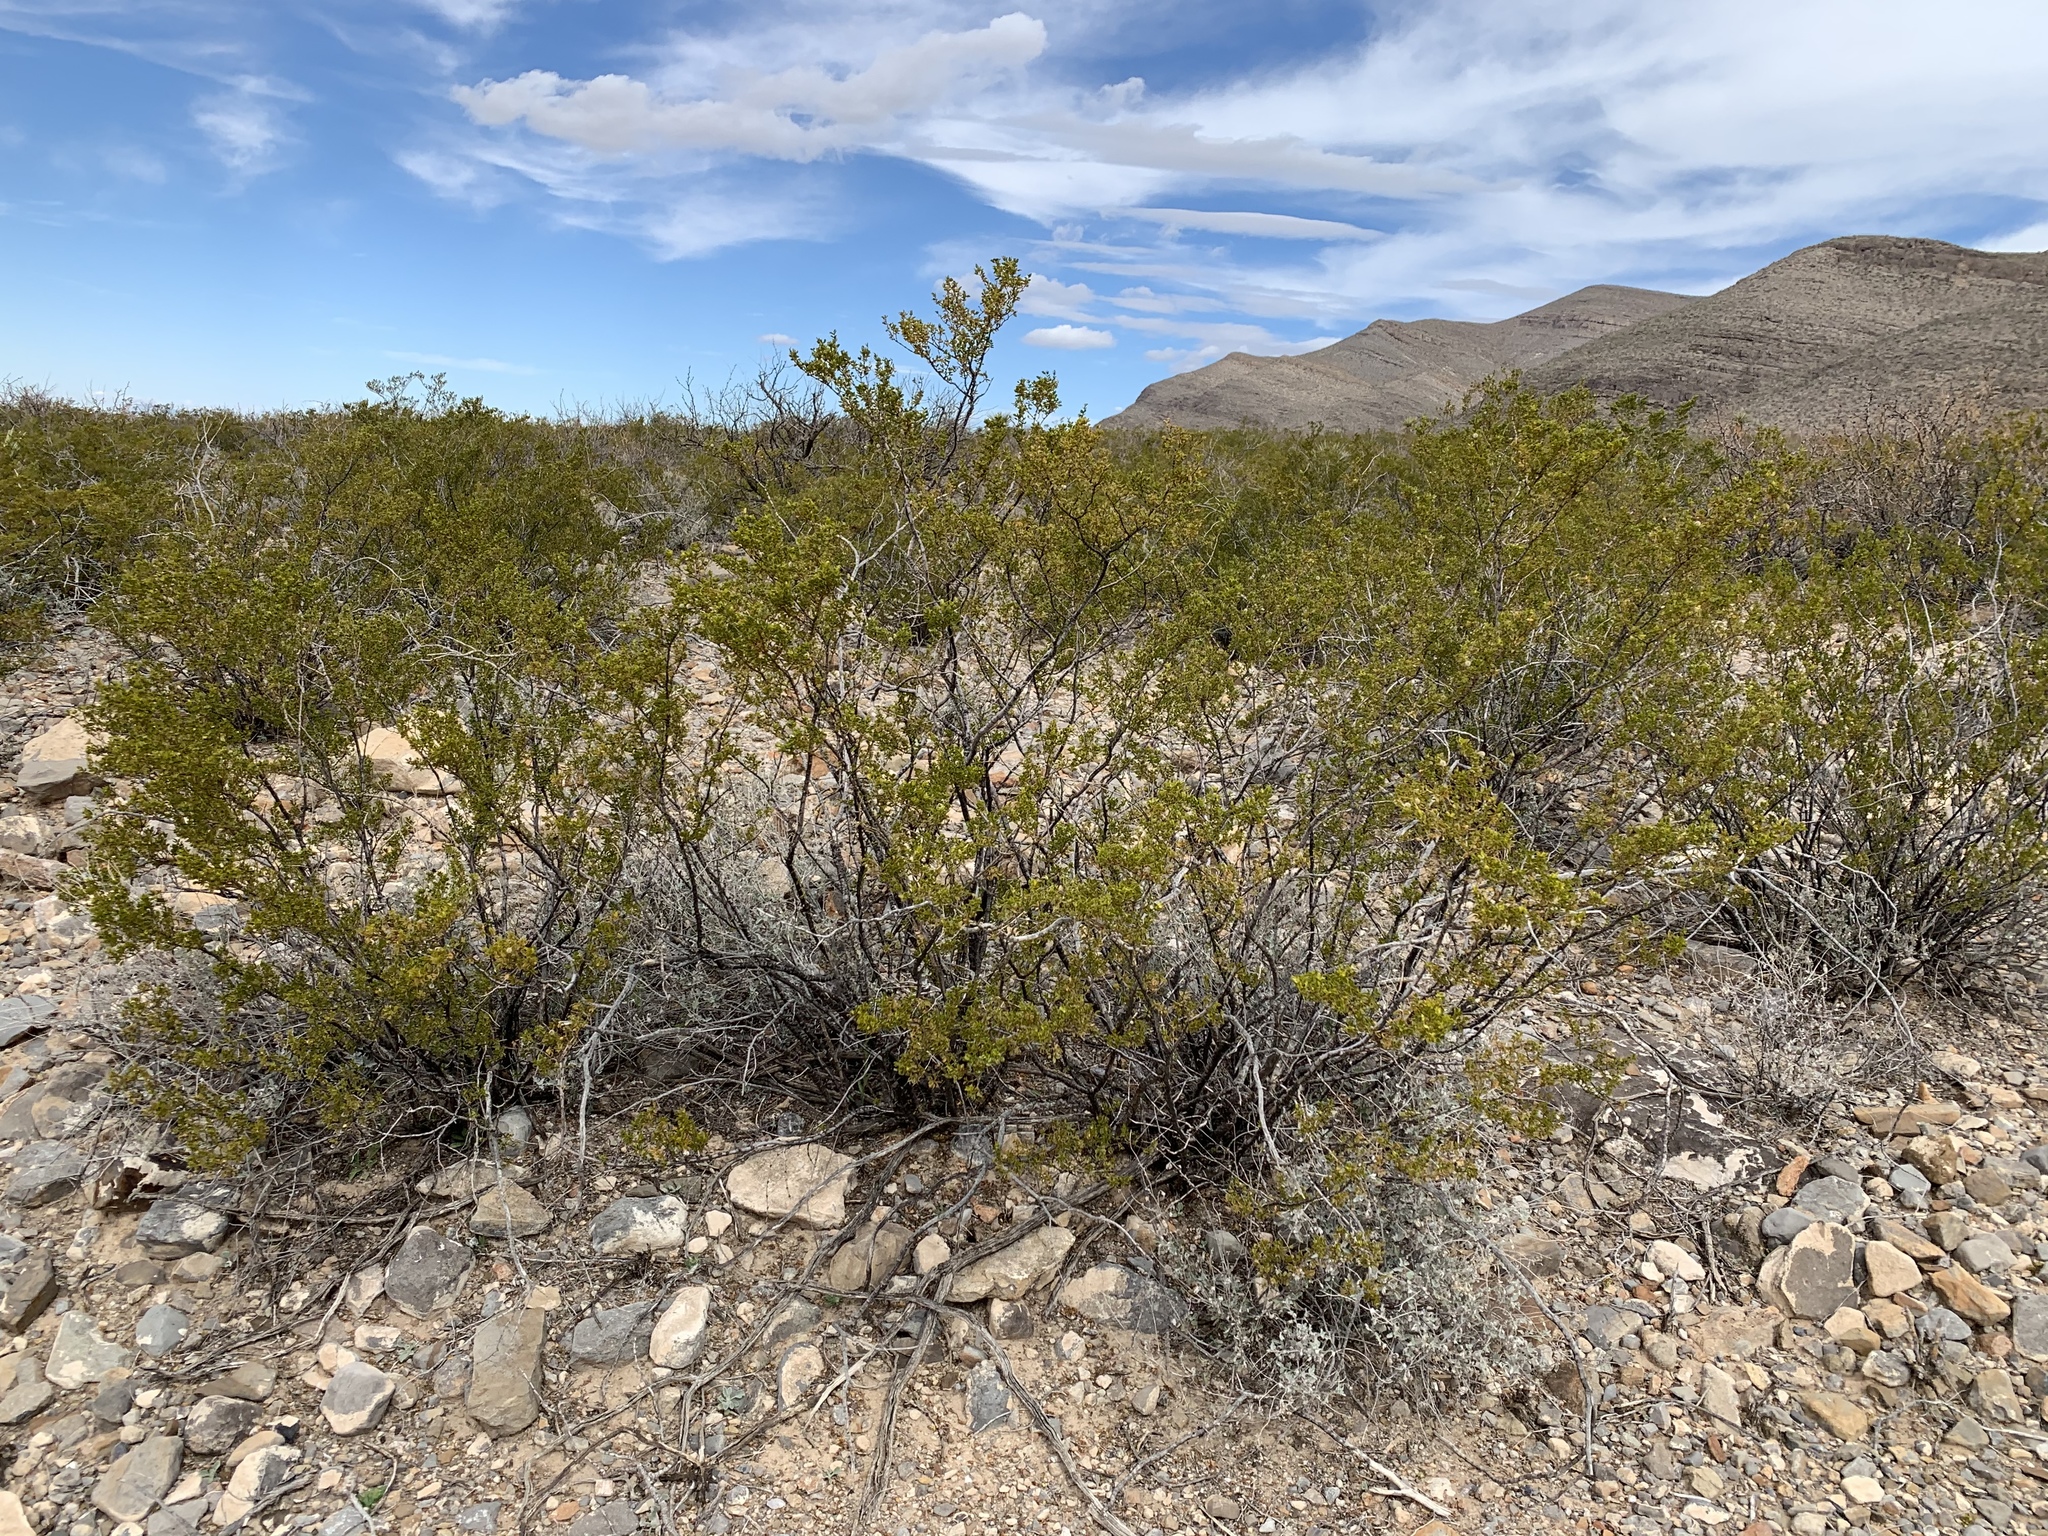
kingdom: Plantae
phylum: Tracheophyta
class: Magnoliopsida
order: Zygophyllales
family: Zygophyllaceae
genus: Larrea
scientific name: Larrea tridentata
